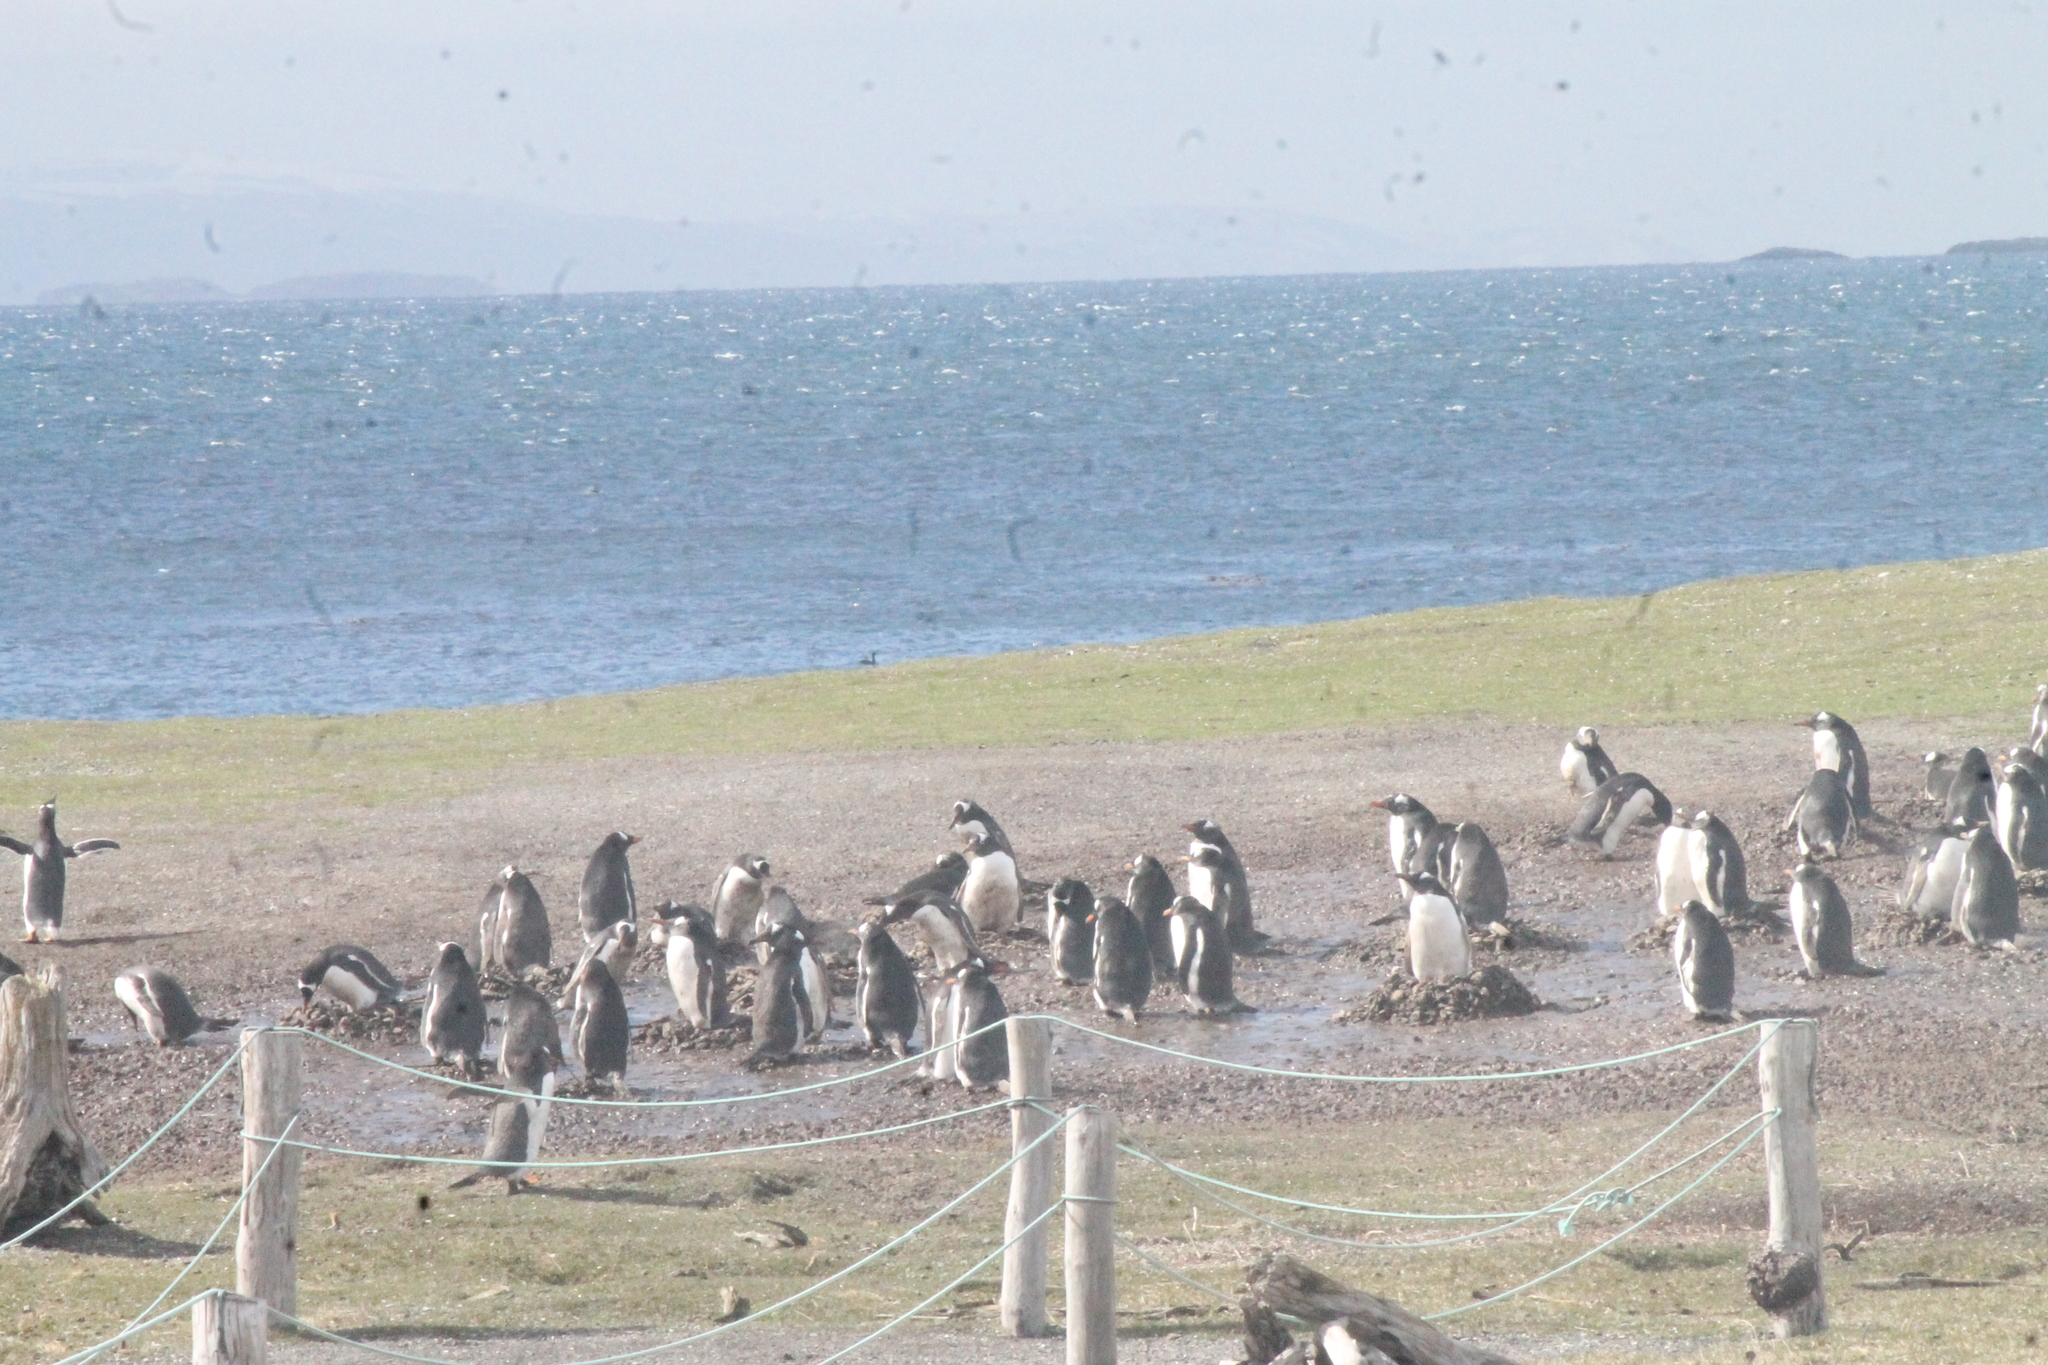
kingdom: Animalia
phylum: Chordata
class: Aves
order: Sphenisciformes
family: Spheniscidae
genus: Pygoscelis
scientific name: Pygoscelis papua
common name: Gentoo penguin
